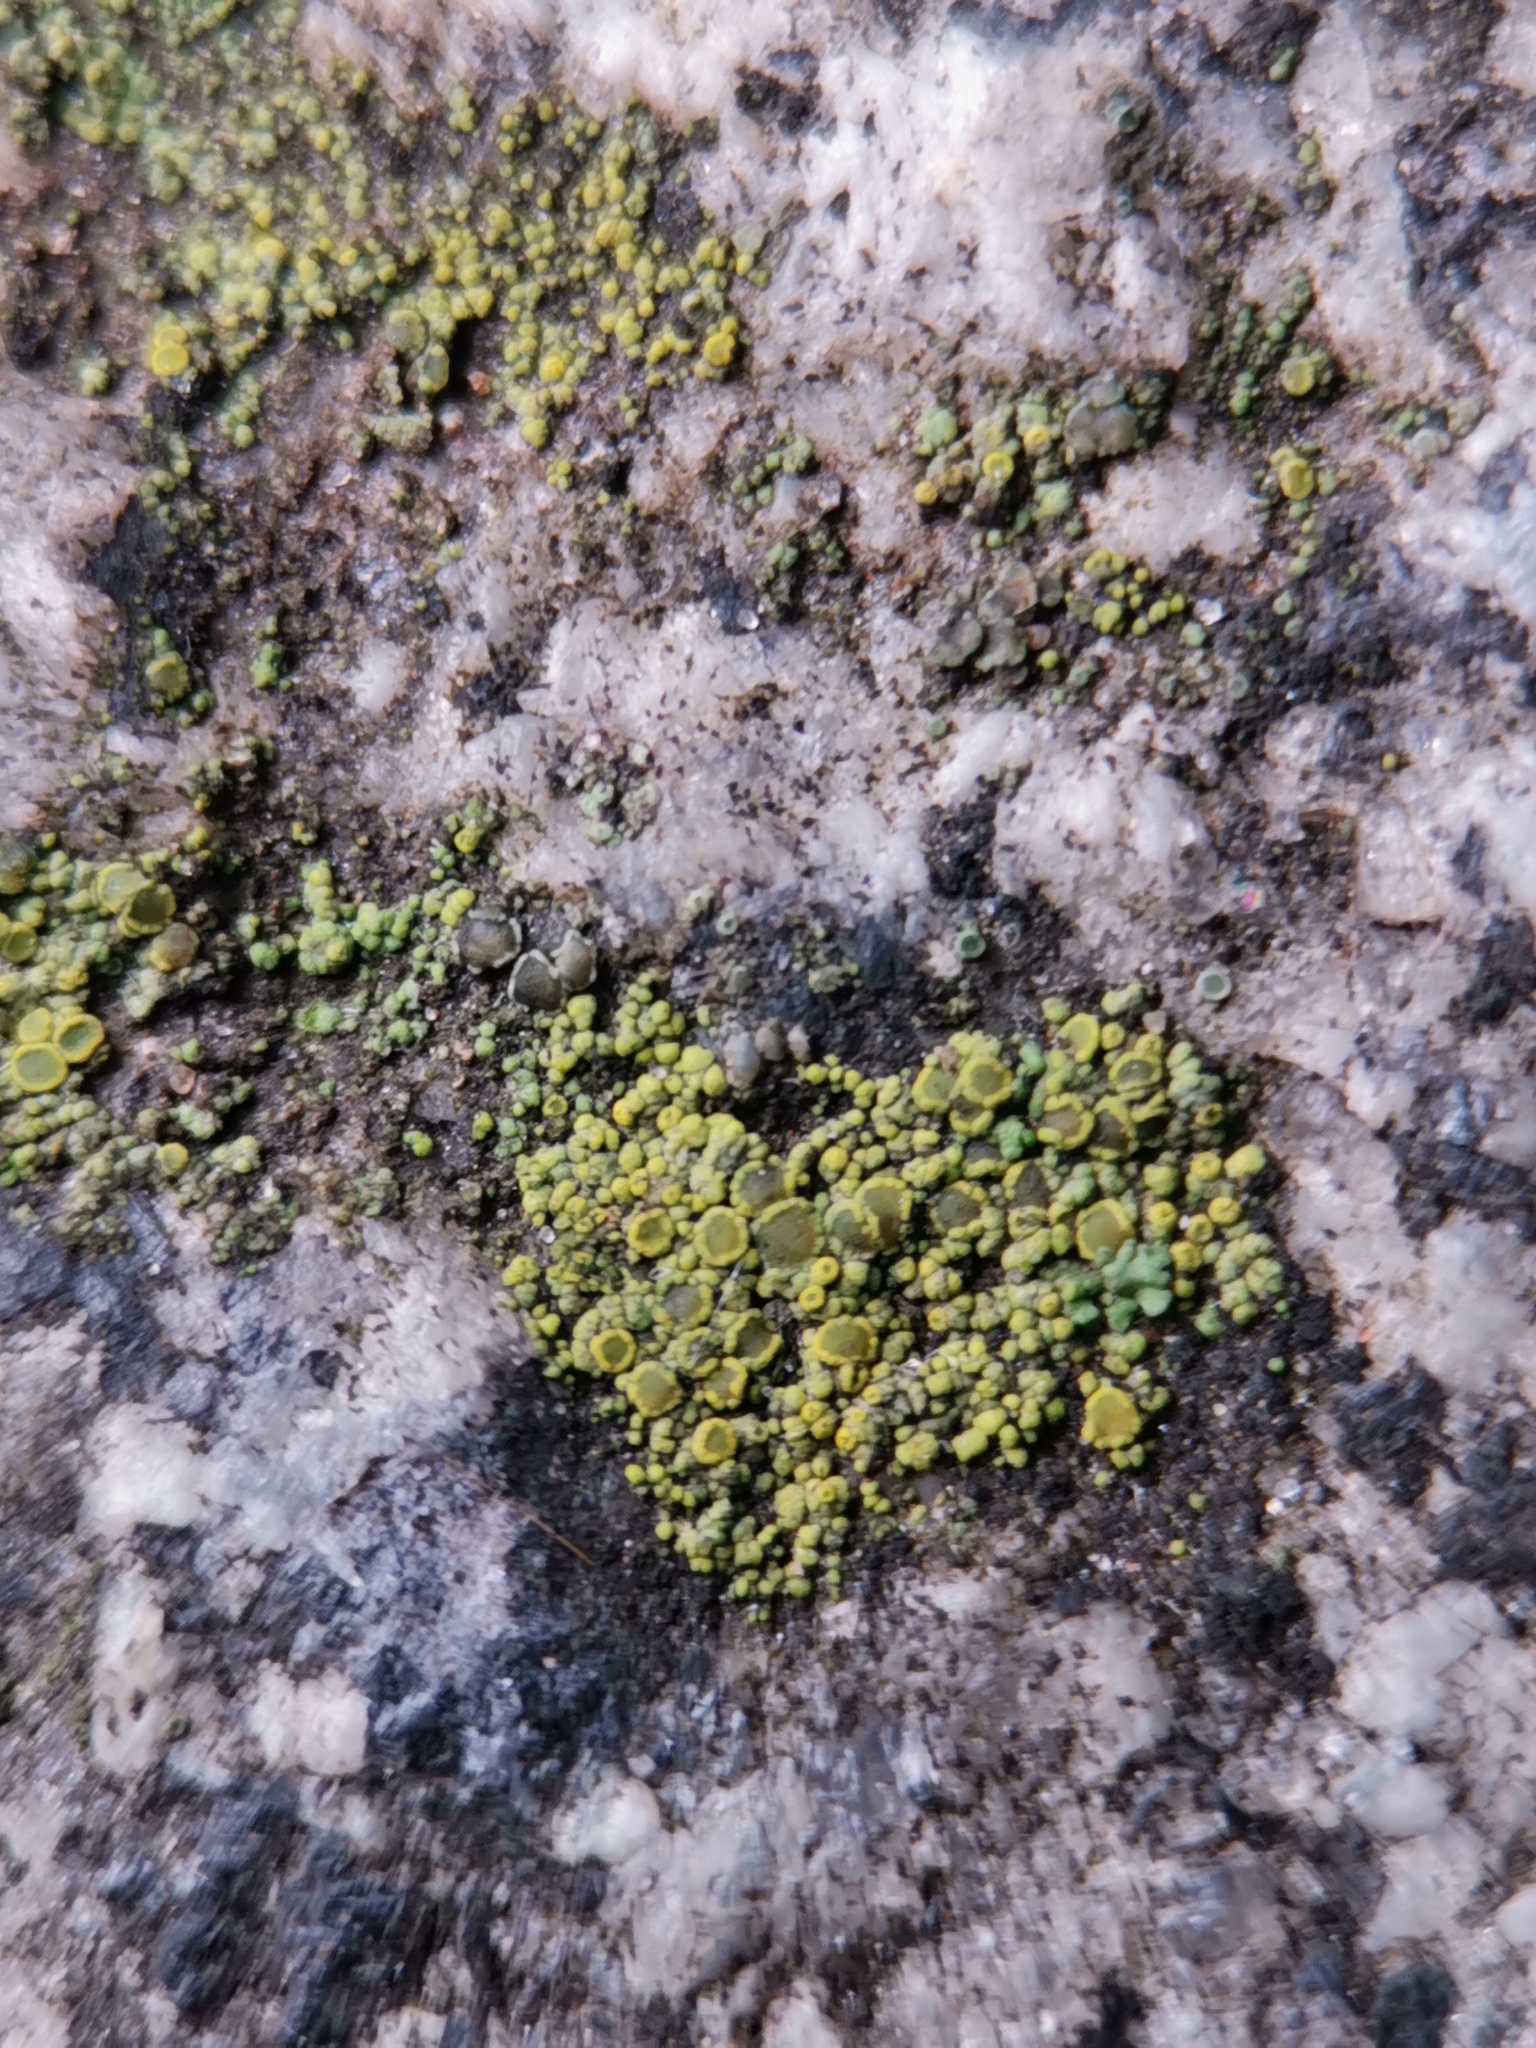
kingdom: Fungi
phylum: Ascomycota
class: Candelariomycetes
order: Candelariales
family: Candelariaceae
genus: Candelariella
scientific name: Candelariella vitellina
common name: Common goldspeck
